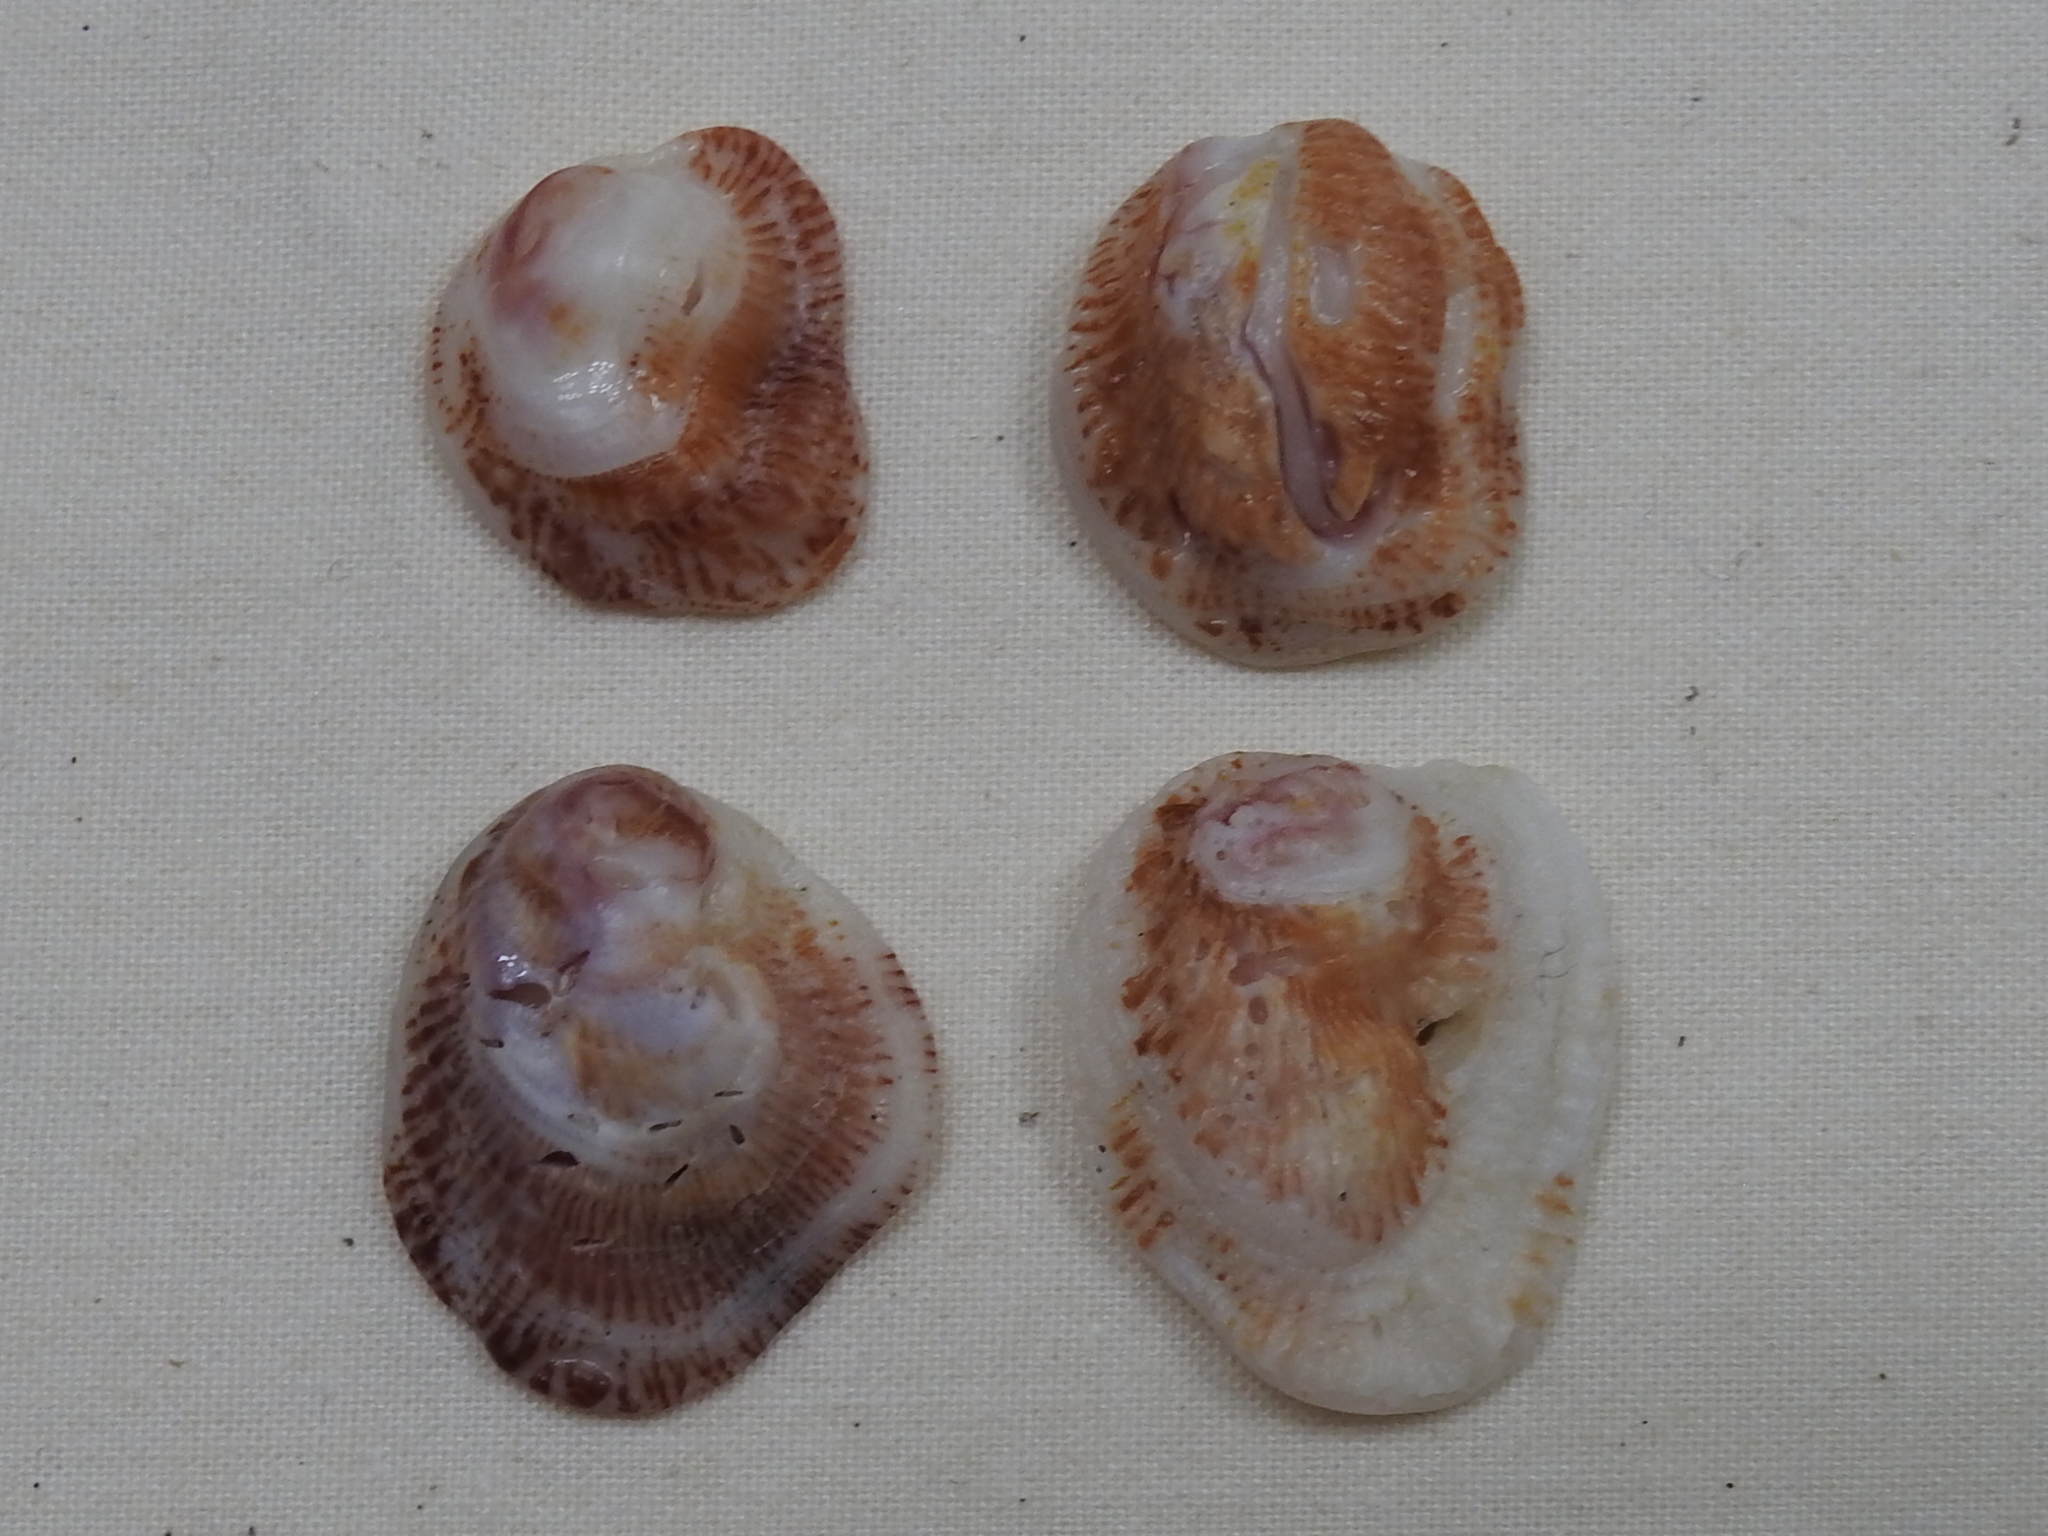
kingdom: Animalia
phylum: Mollusca
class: Bivalvia
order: Venerida
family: Chamidae
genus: Chama
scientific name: Chama congregata
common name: Corrugate jewelbox
